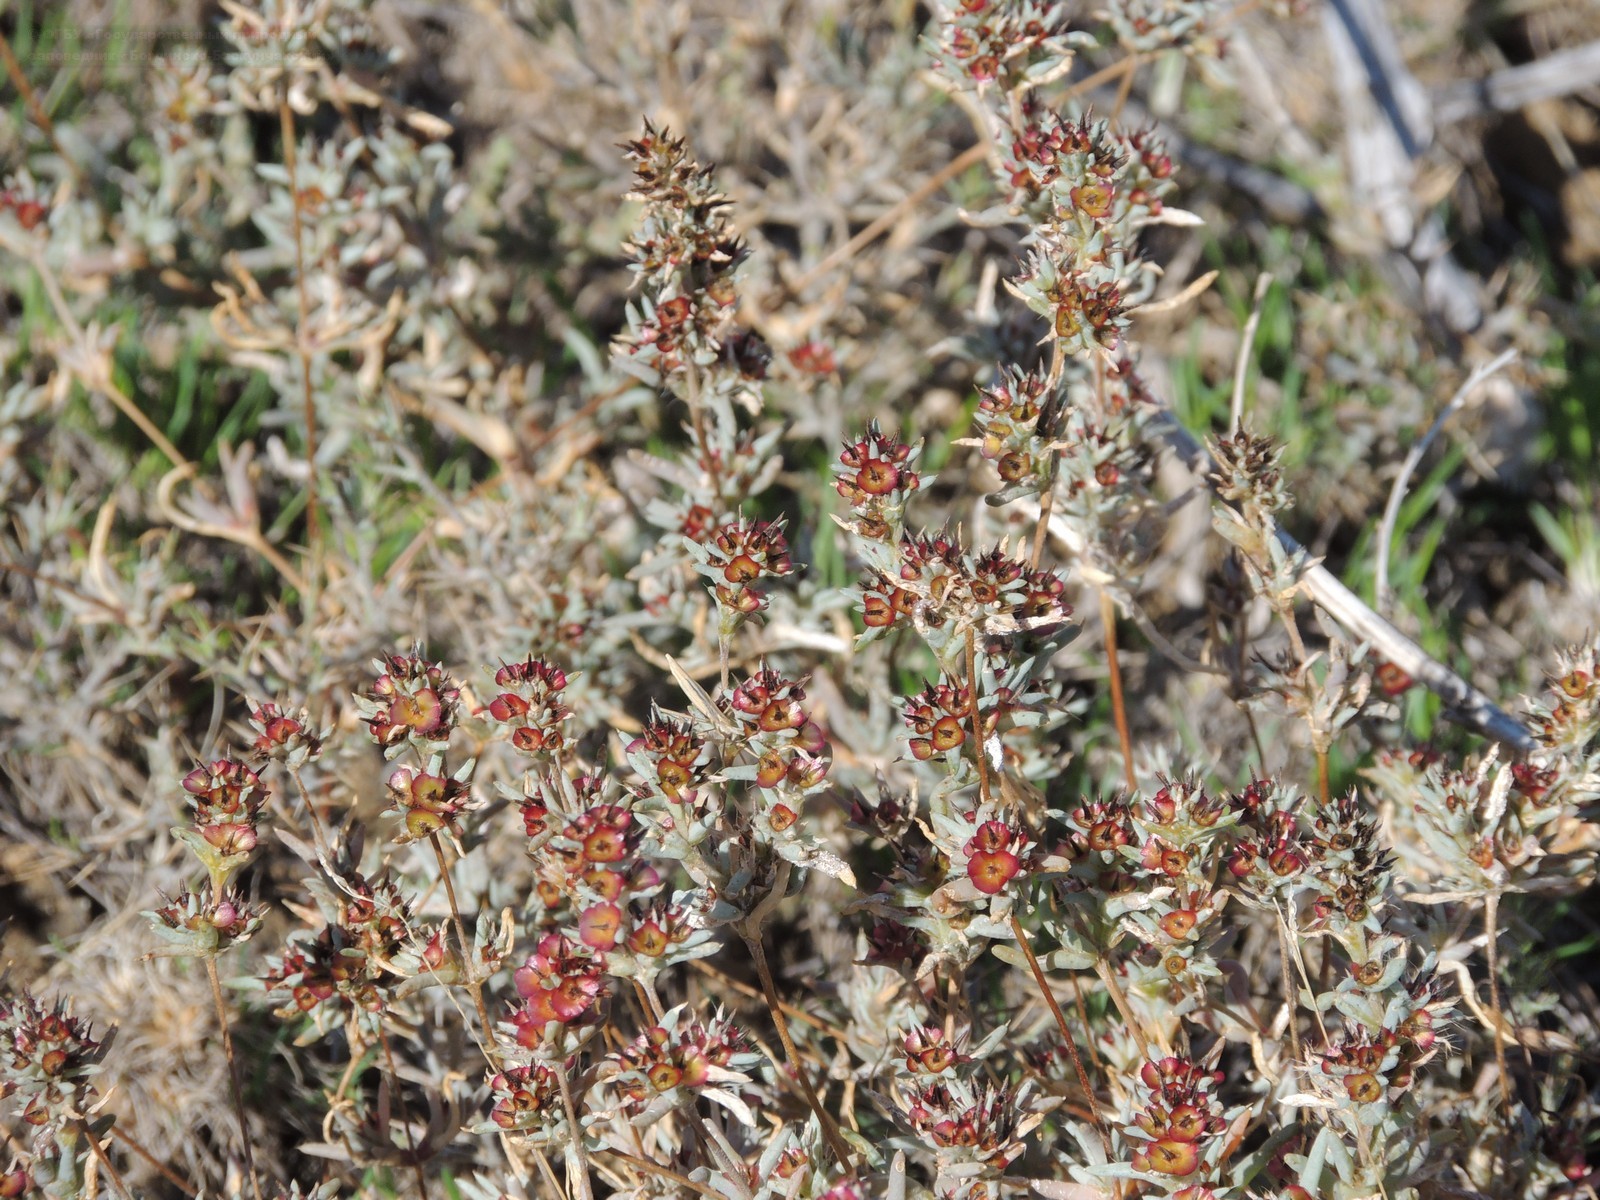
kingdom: Plantae
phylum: Tracheophyta
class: Magnoliopsida
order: Caryophyllales
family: Amaranthaceae
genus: Pyankovia
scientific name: Pyankovia brachiata
